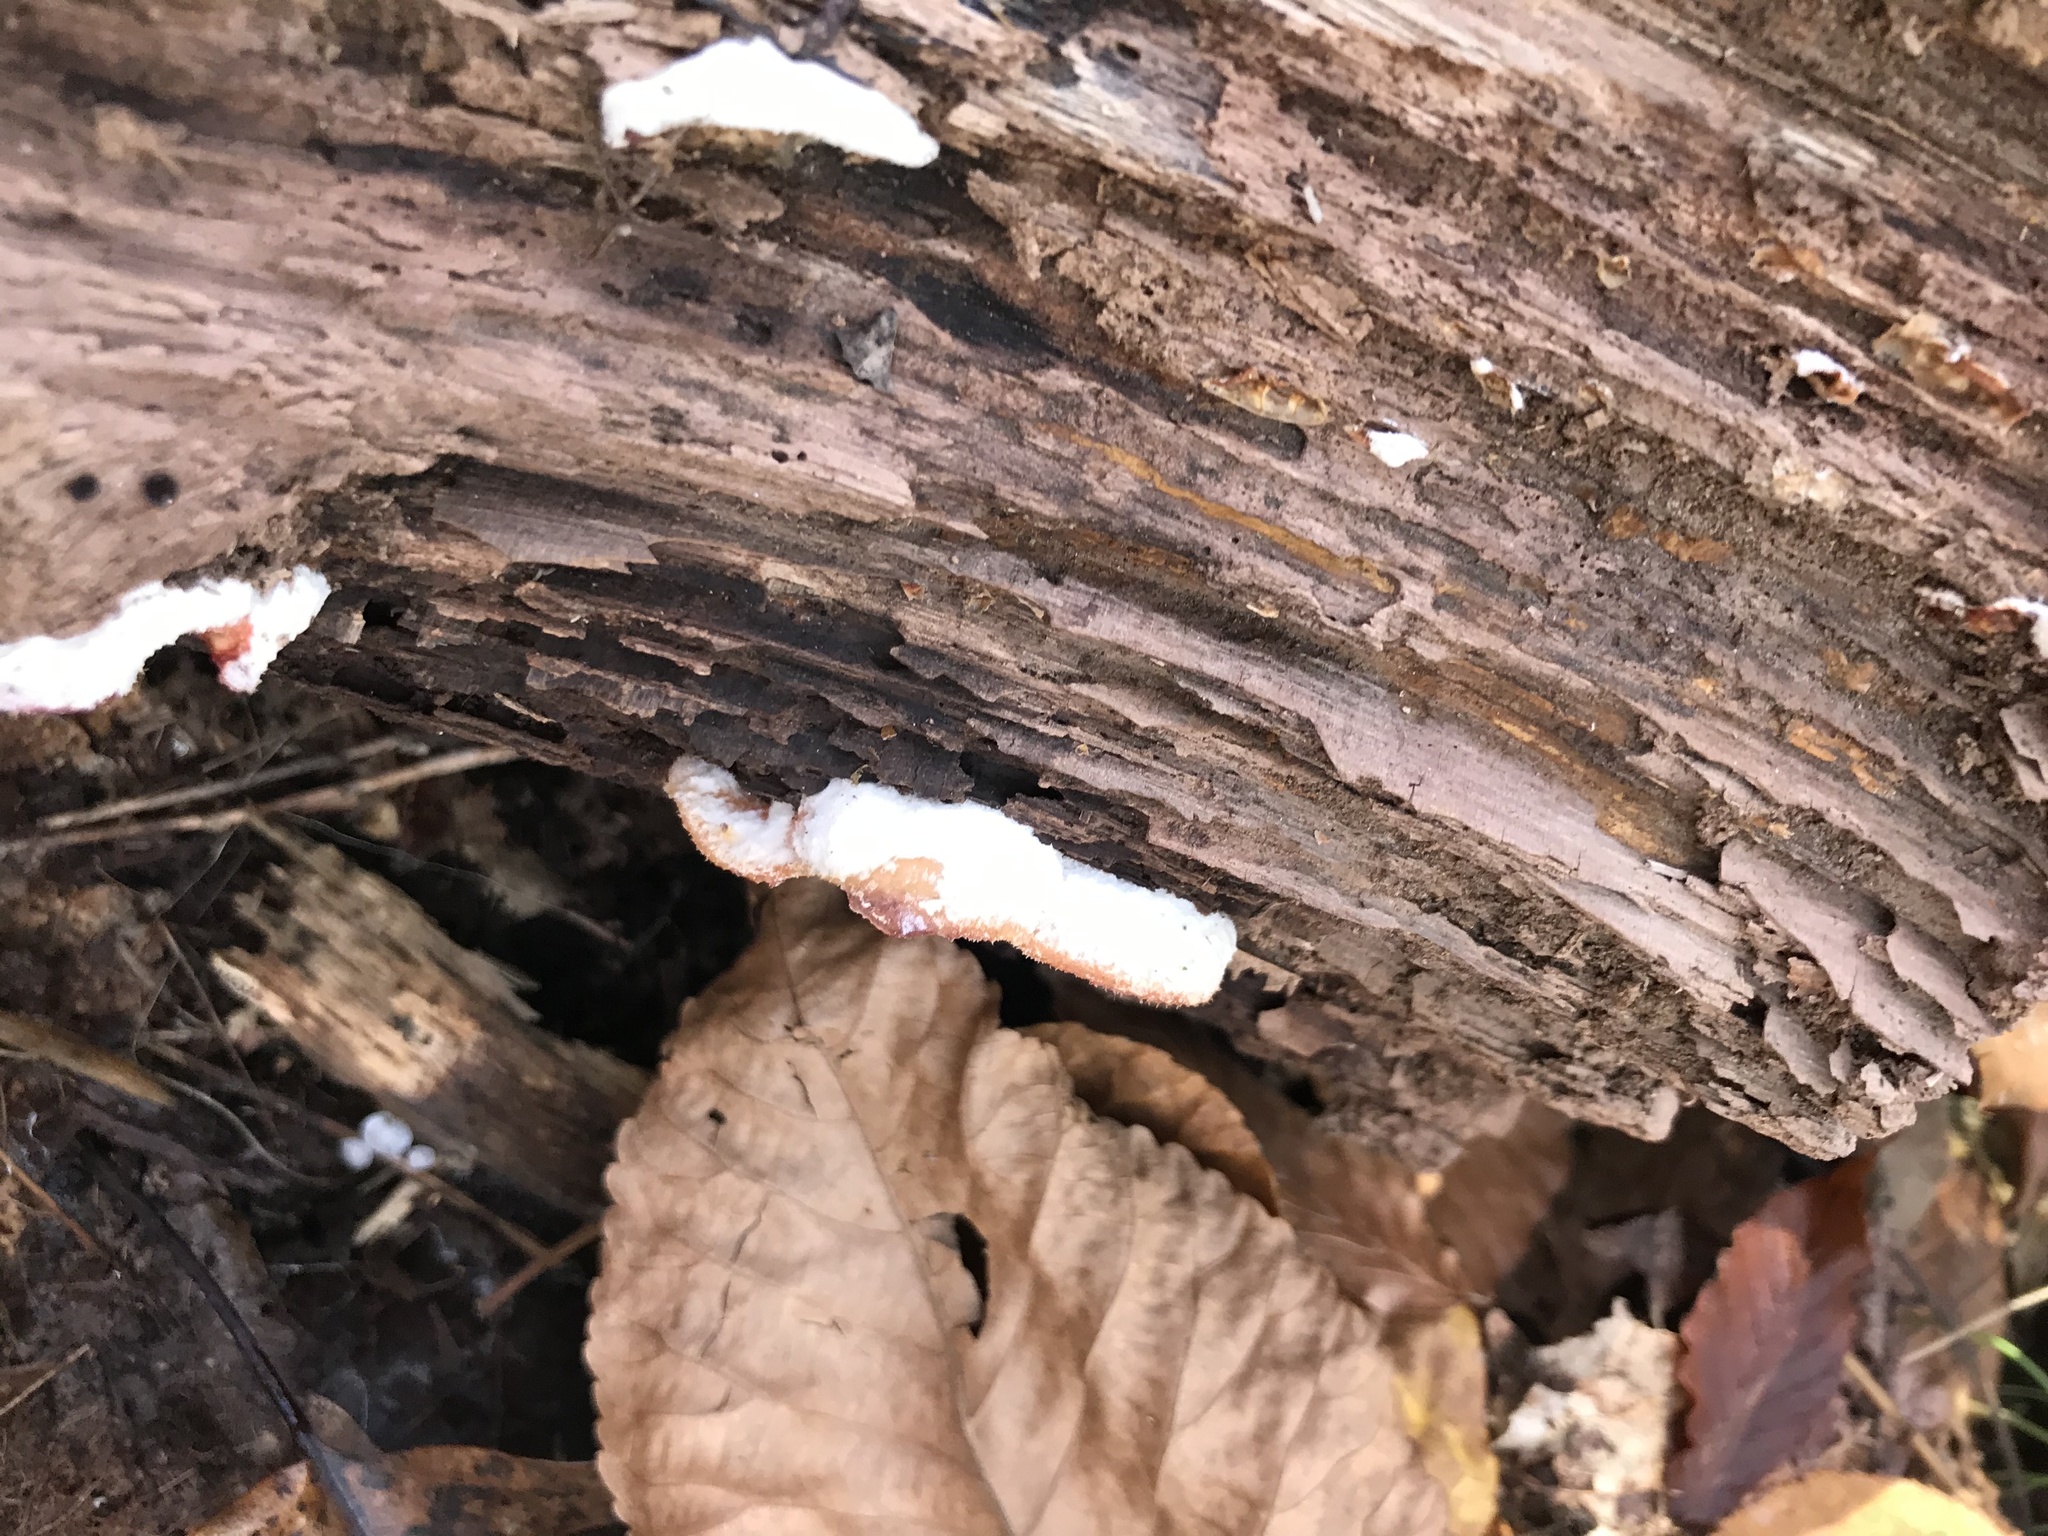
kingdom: Fungi
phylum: Basidiomycota
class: Agaricomycetes
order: Polyporales
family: Meruliaceae
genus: Phlebia
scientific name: Phlebia tremellosa
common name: Jelly rot
